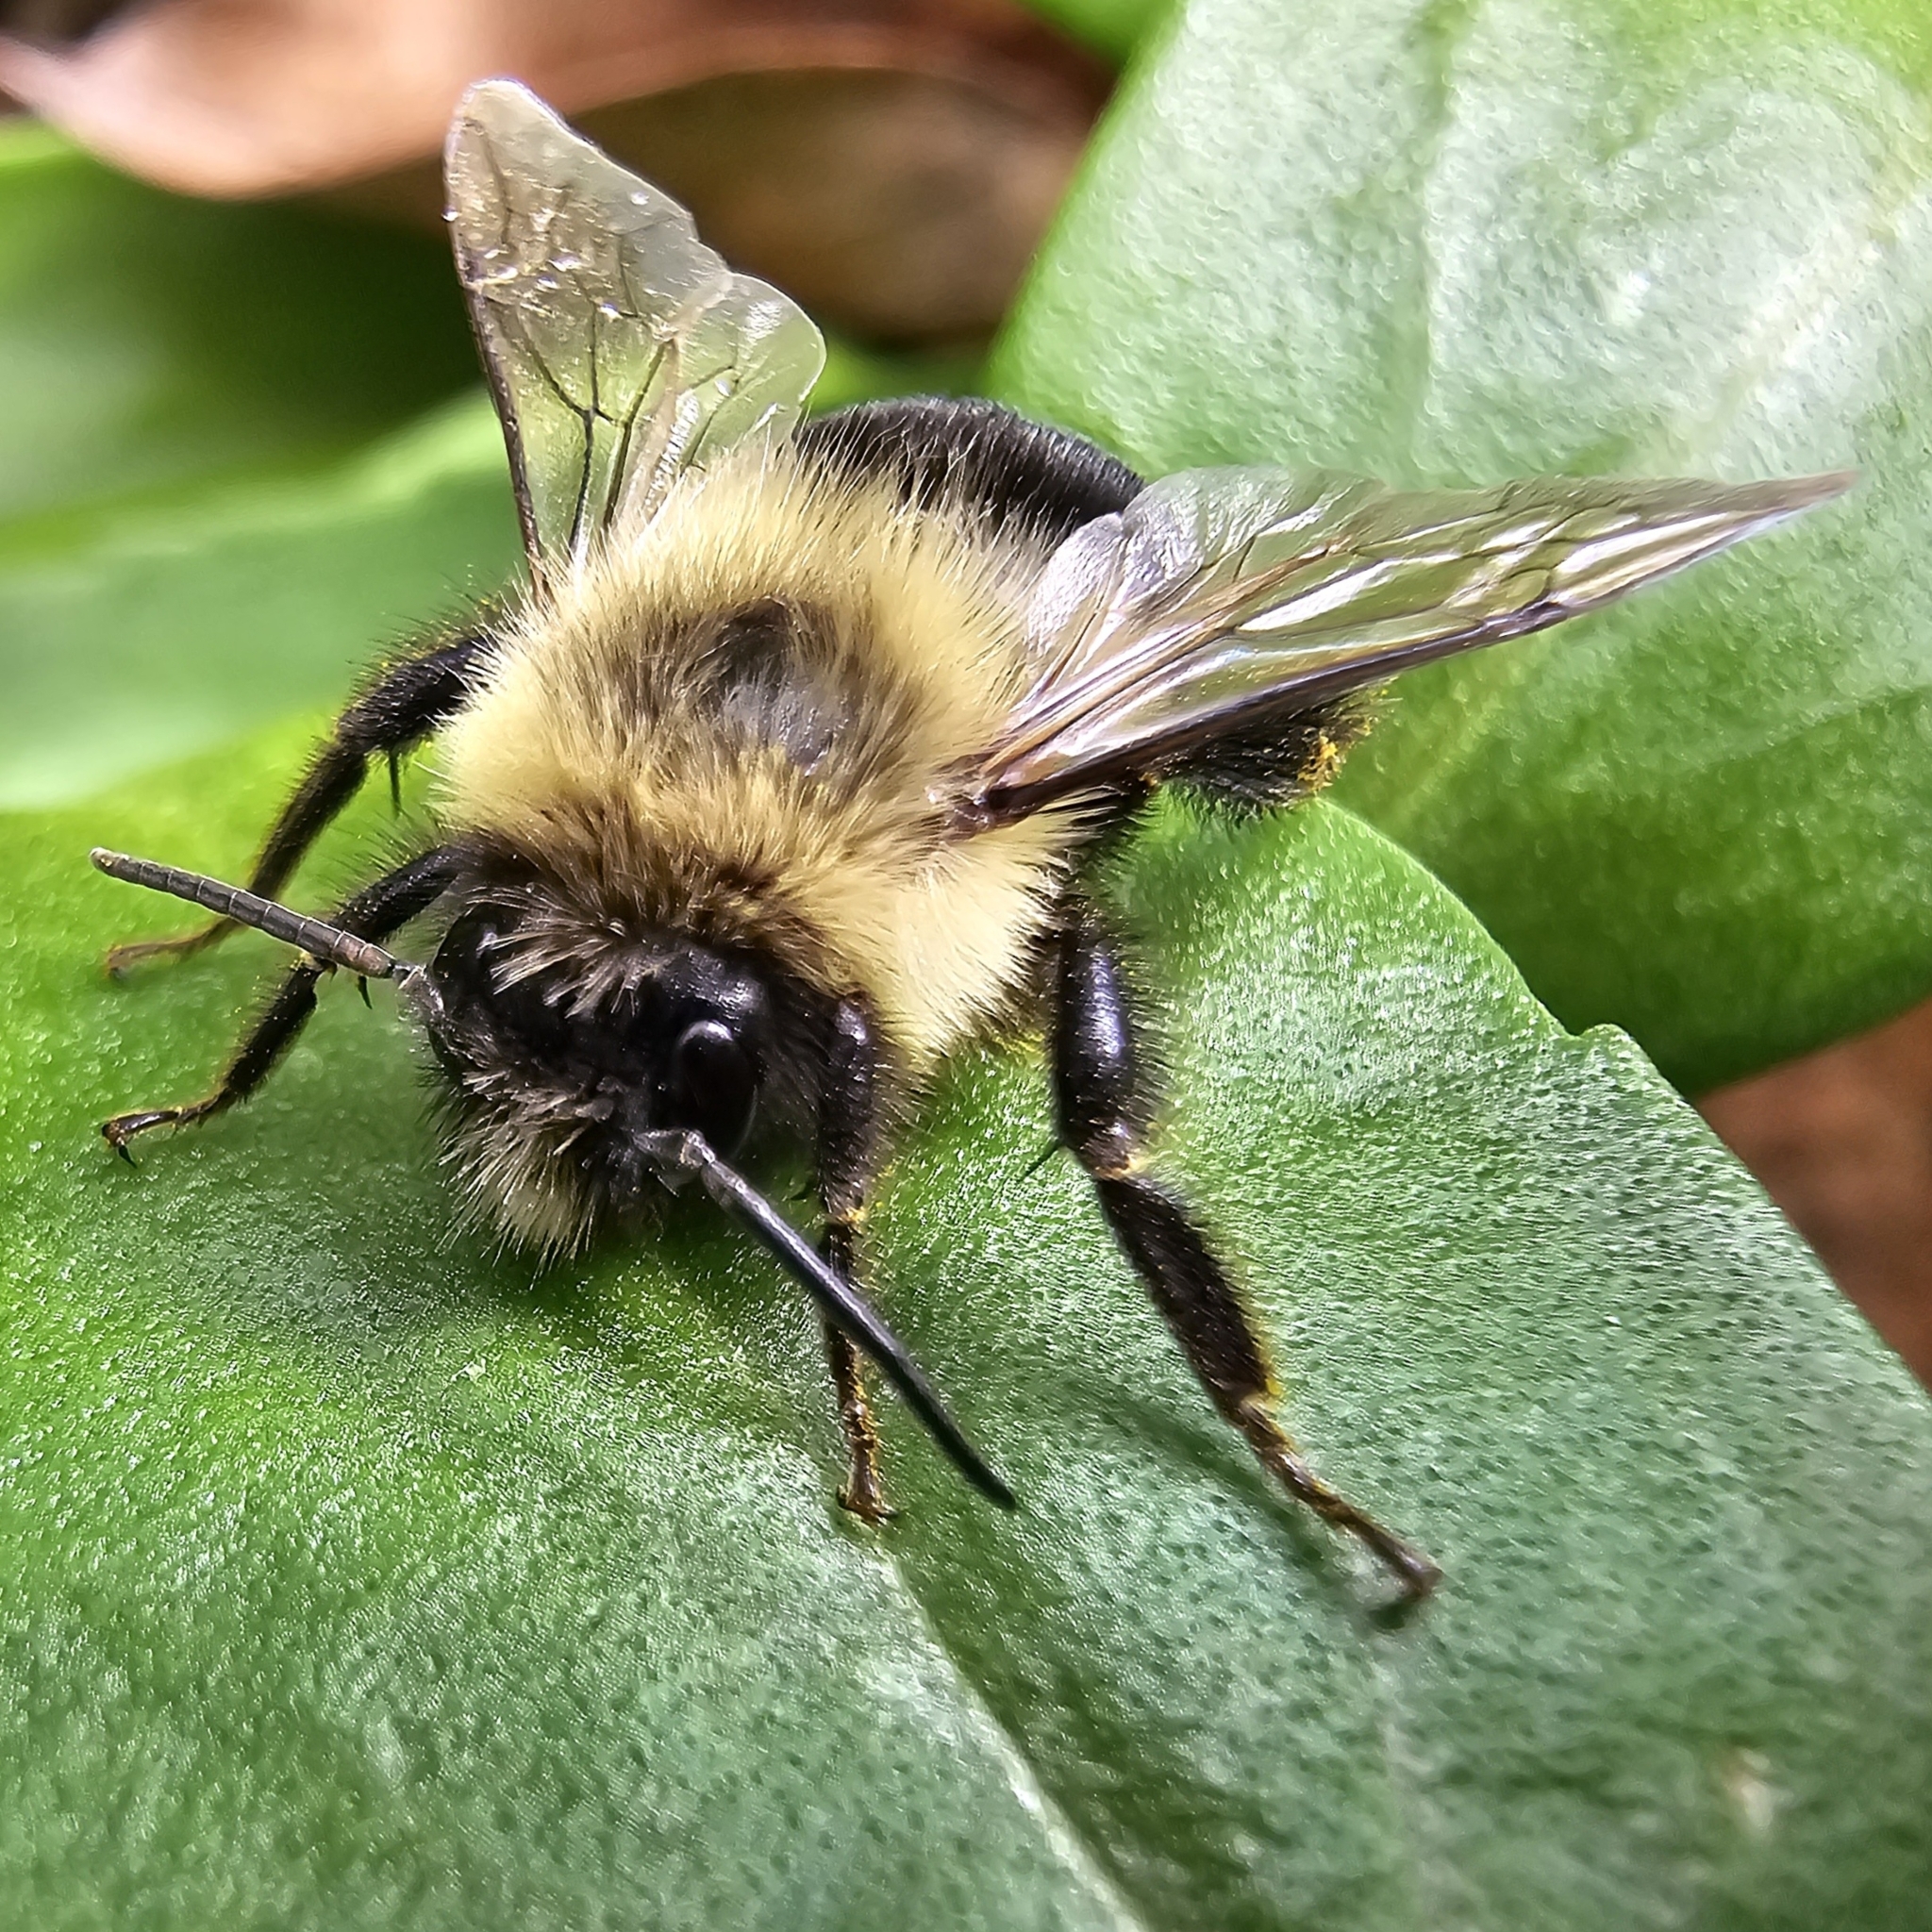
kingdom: Animalia
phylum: Arthropoda
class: Insecta
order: Hymenoptera
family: Apidae
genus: Bombus
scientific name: Bombus impatiens
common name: Common eastern bumble bee
